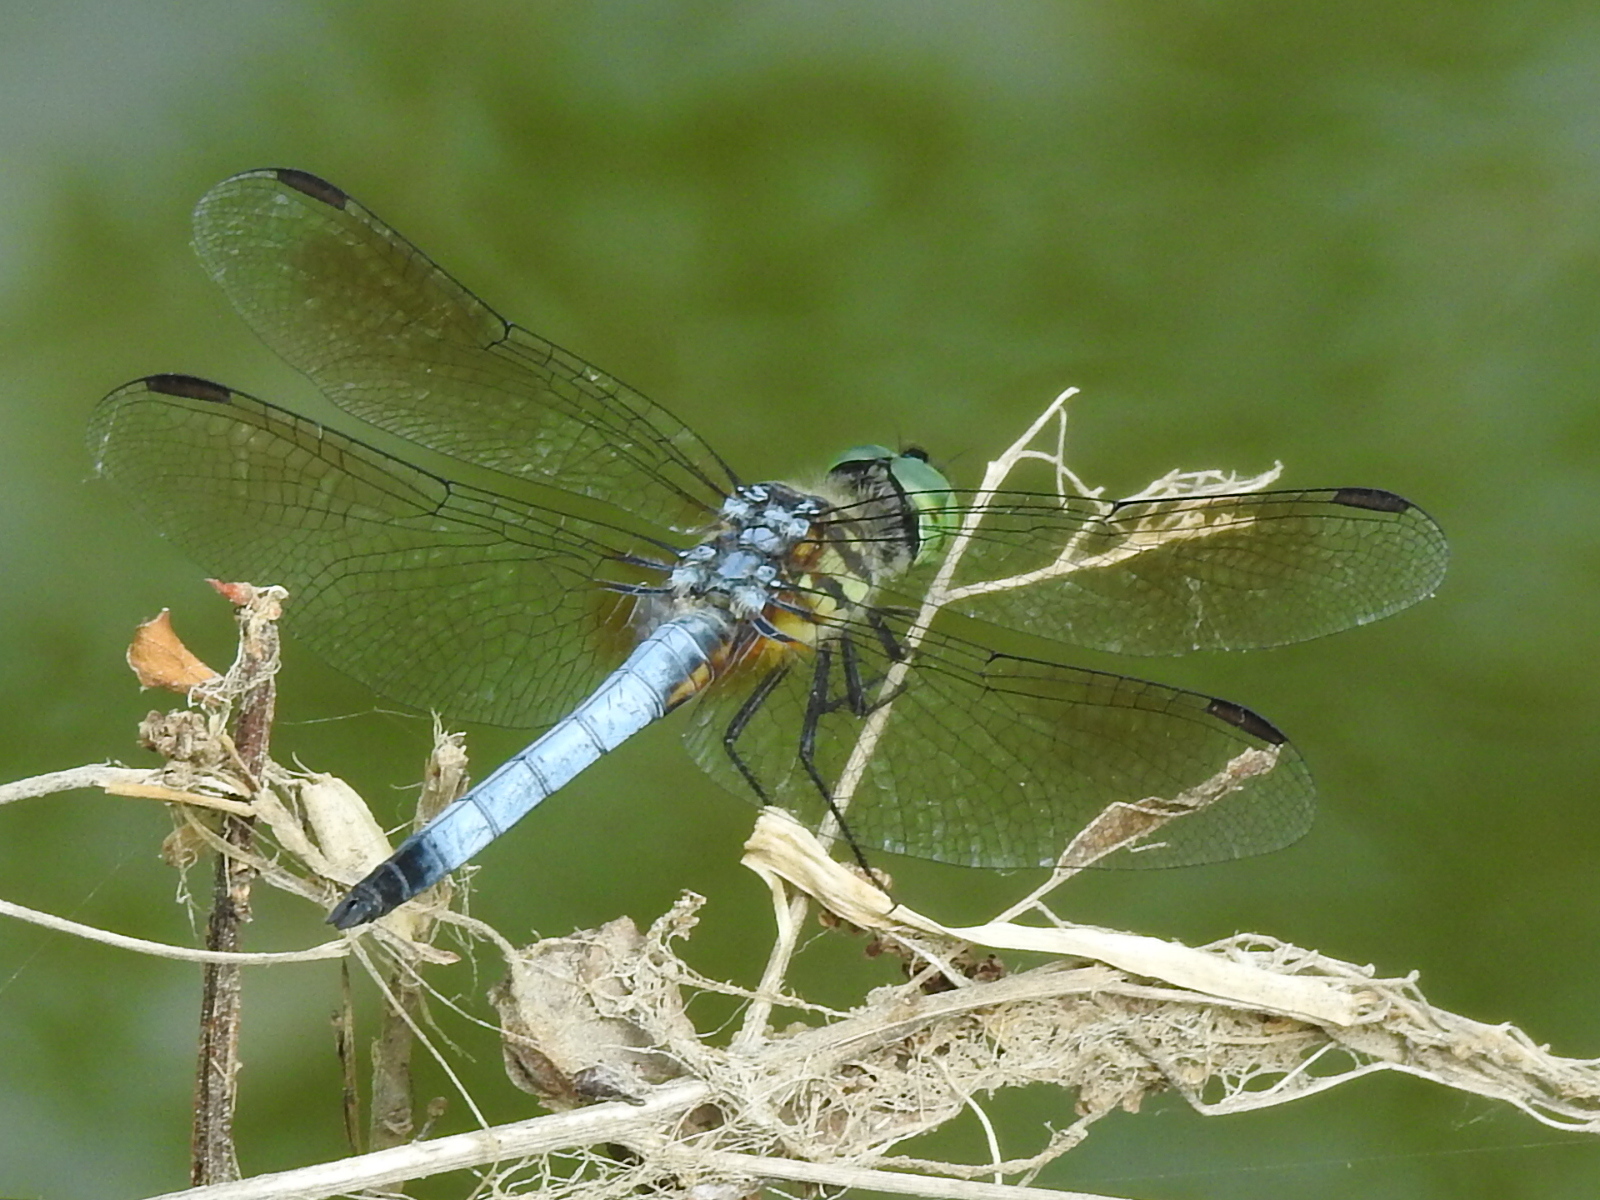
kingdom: Animalia
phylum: Arthropoda
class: Insecta
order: Odonata
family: Libellulidae
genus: Pachydiplax
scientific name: Pachydiplax longipennis
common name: Blue dasher
